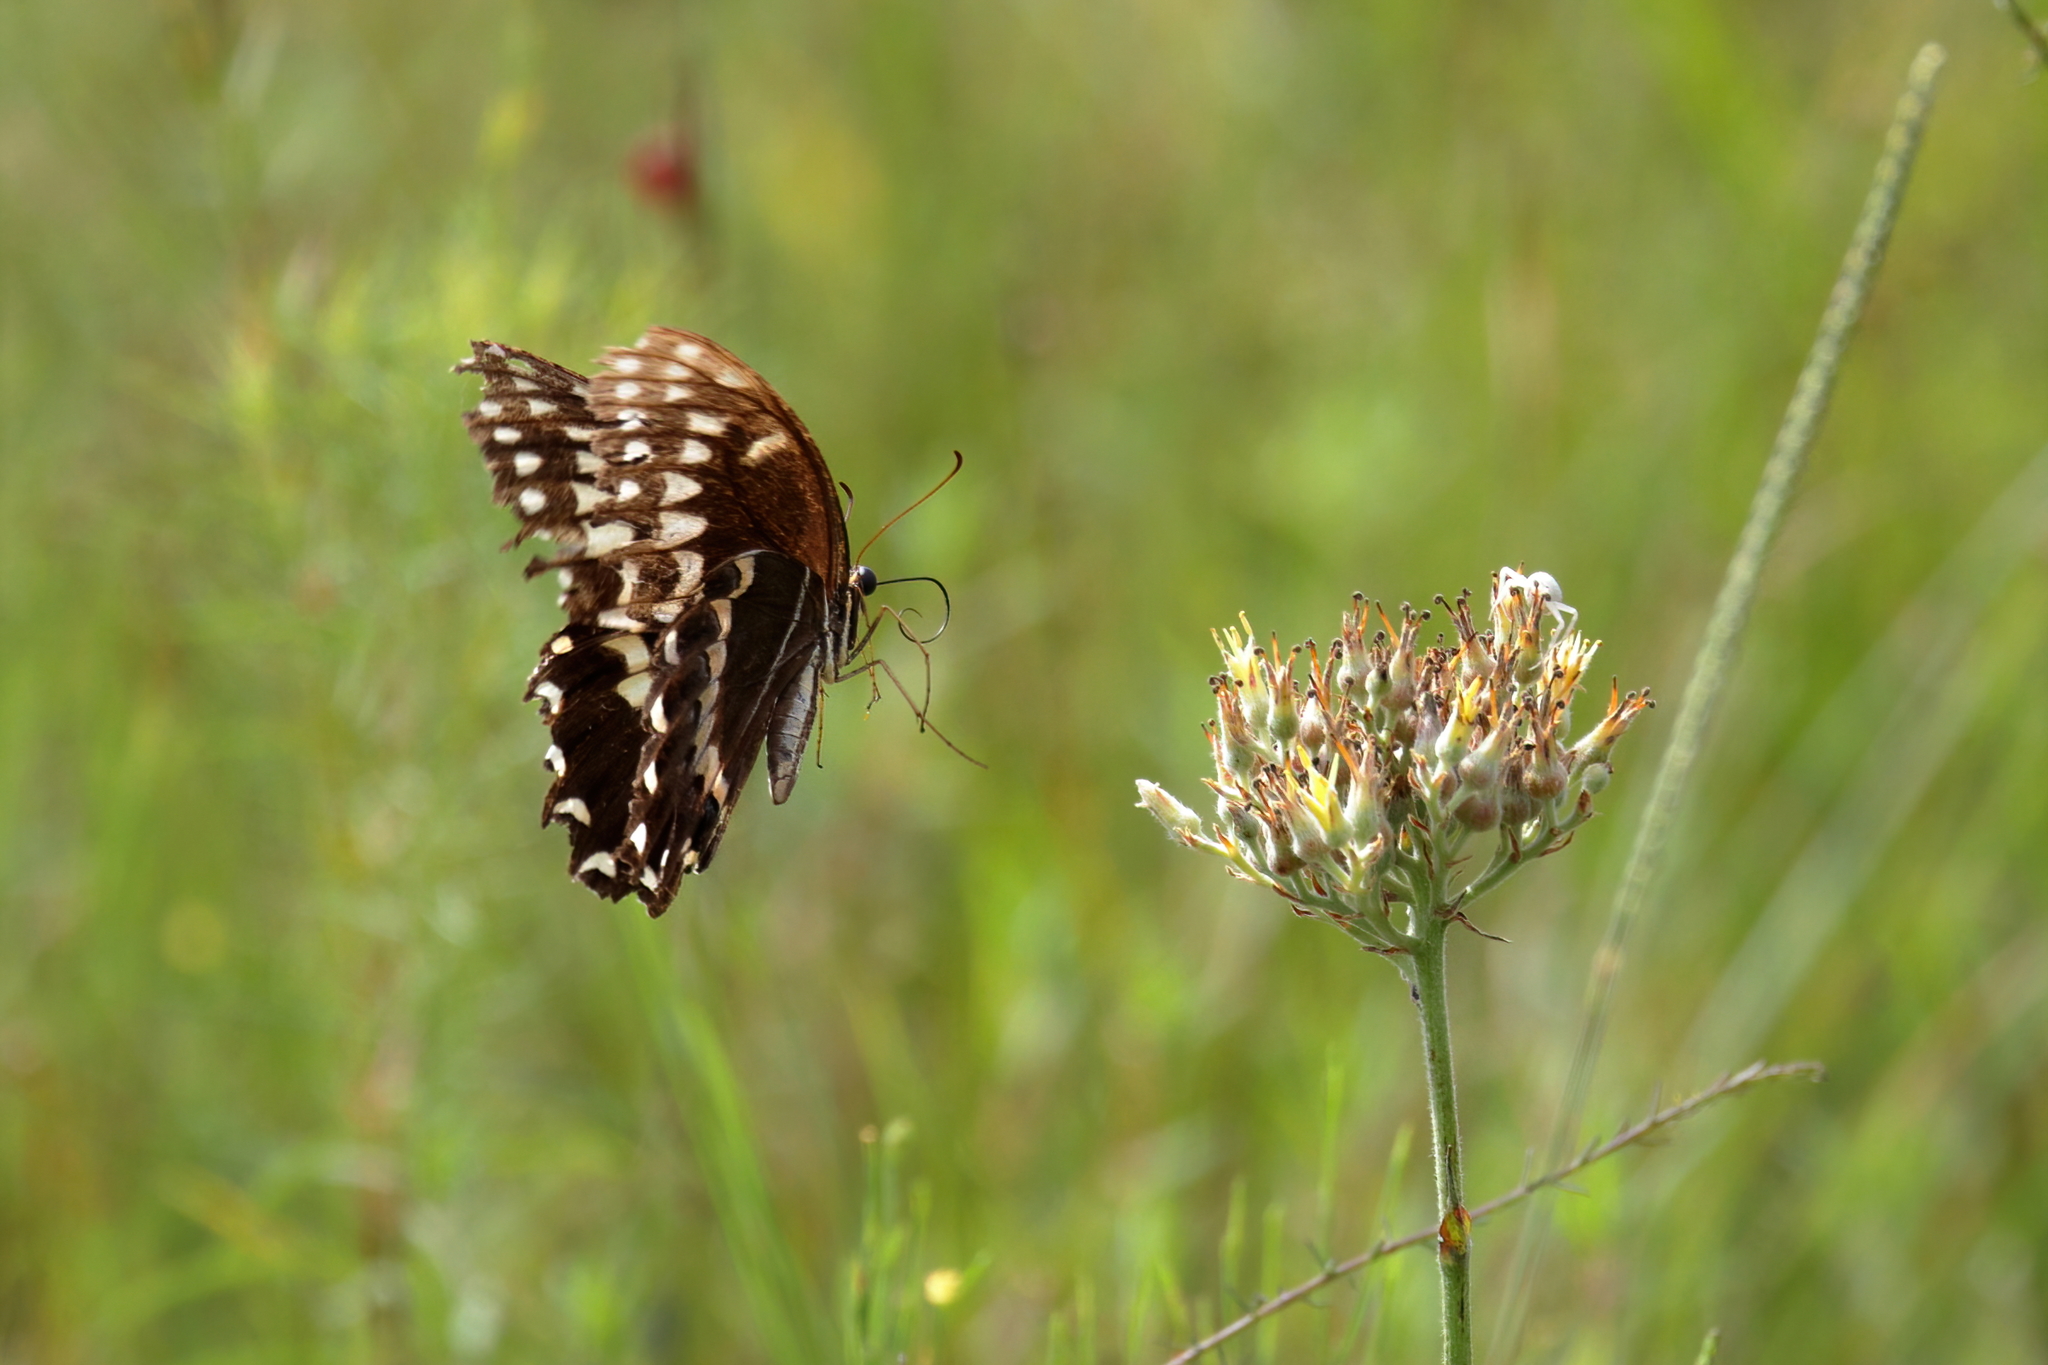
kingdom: Animalia
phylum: Arthropoda
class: Insecta
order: Lepidoptera
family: Papilionidae
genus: Papilio
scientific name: Papilio palamedes
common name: Palamedes swallowtail
